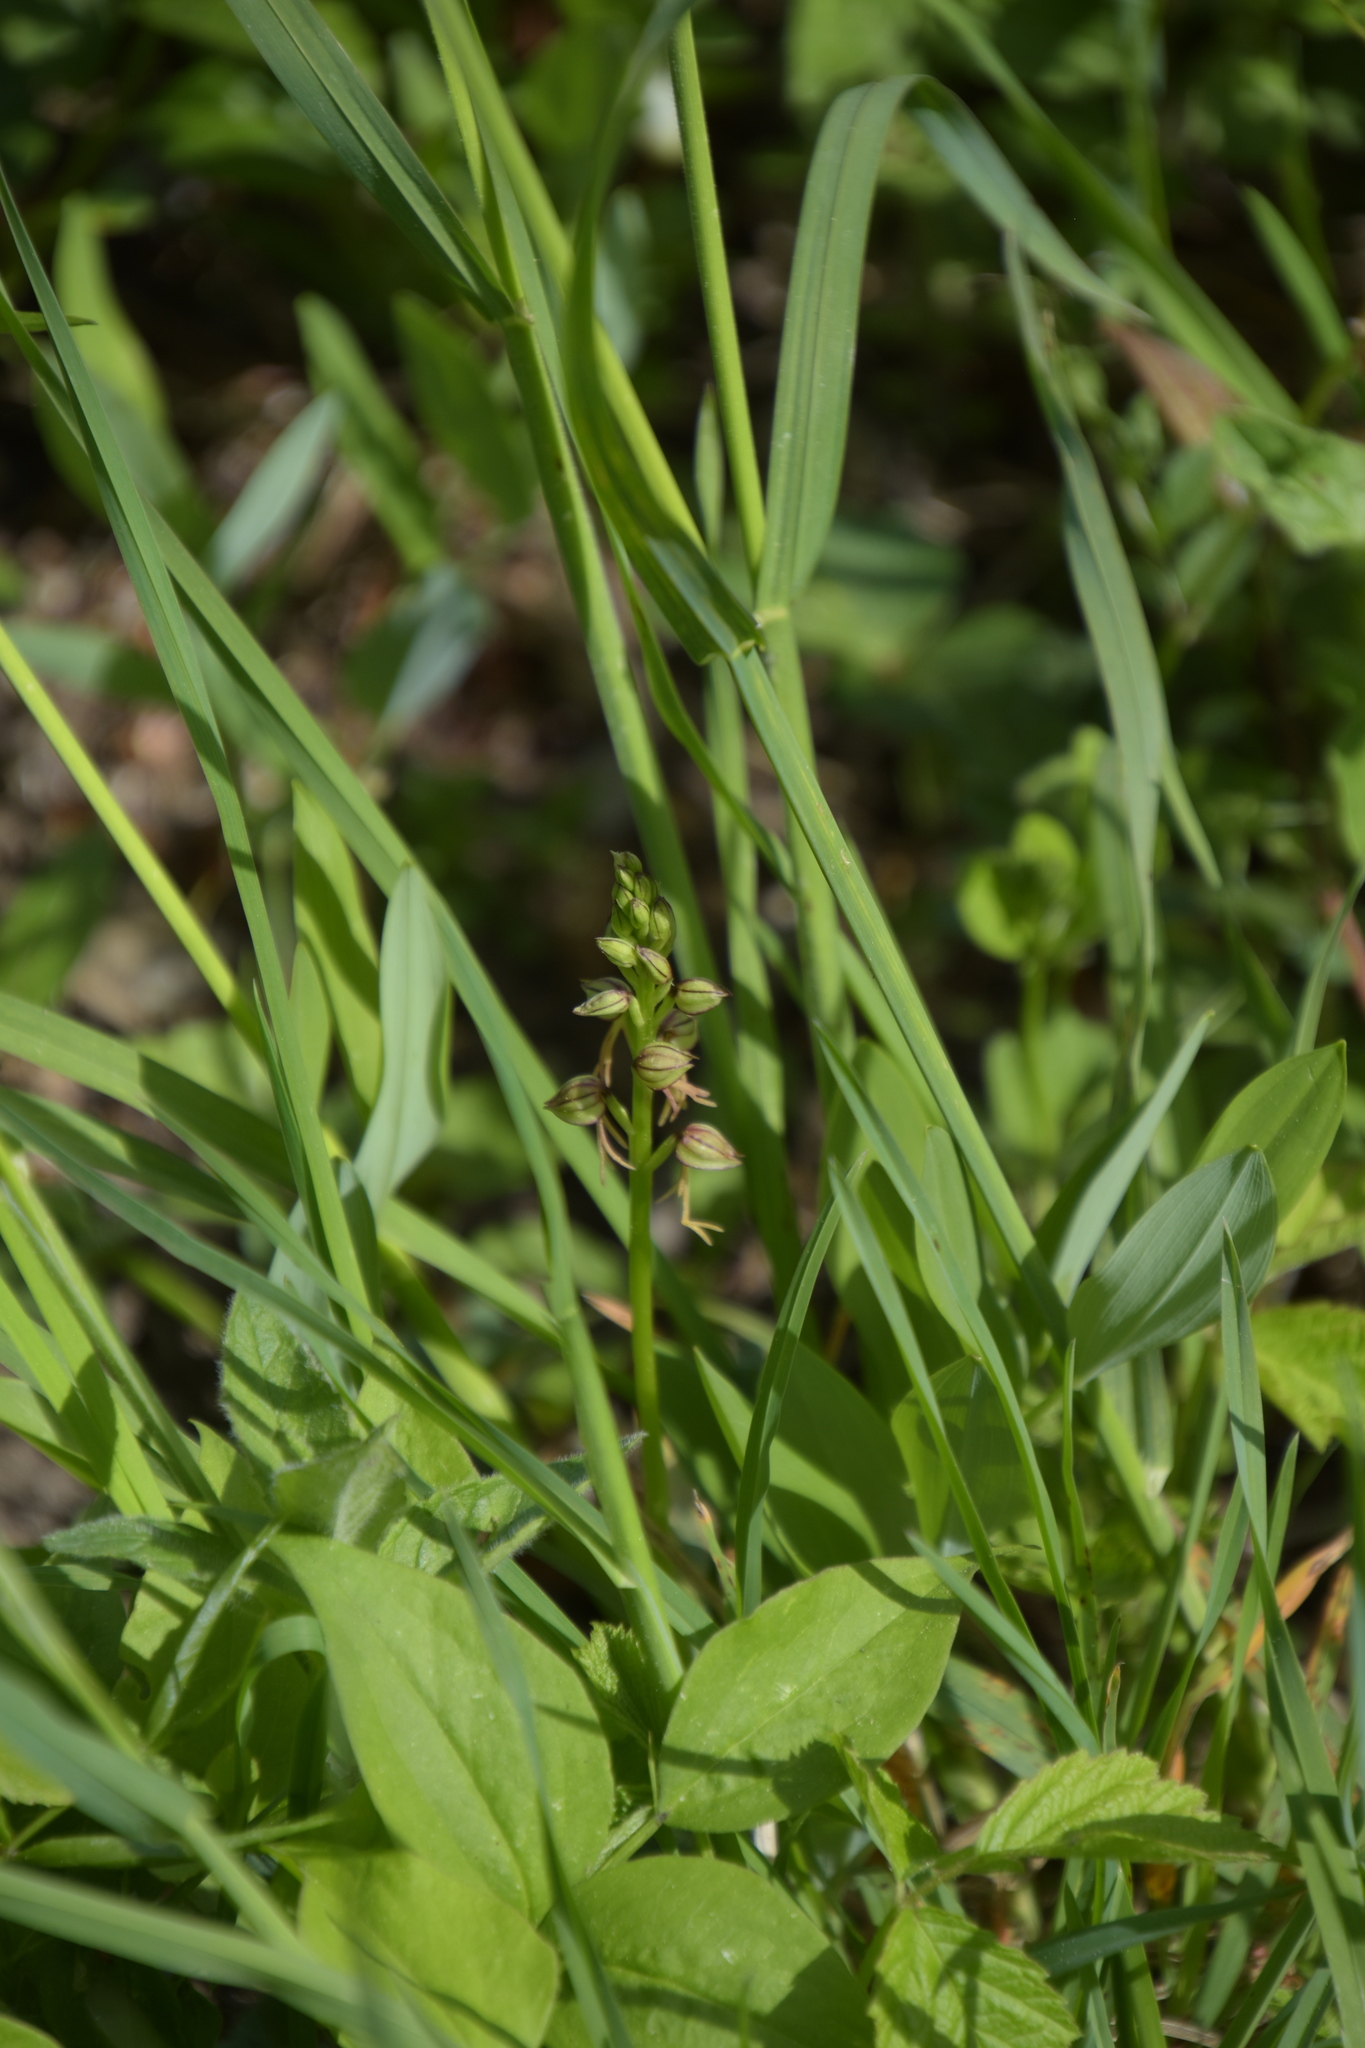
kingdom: Plantae
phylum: Tracheophyta
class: Liliopsida
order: Asparagales
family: Orchidaceae
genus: Orchis
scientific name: Orchis anthropophora
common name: Man orchid
